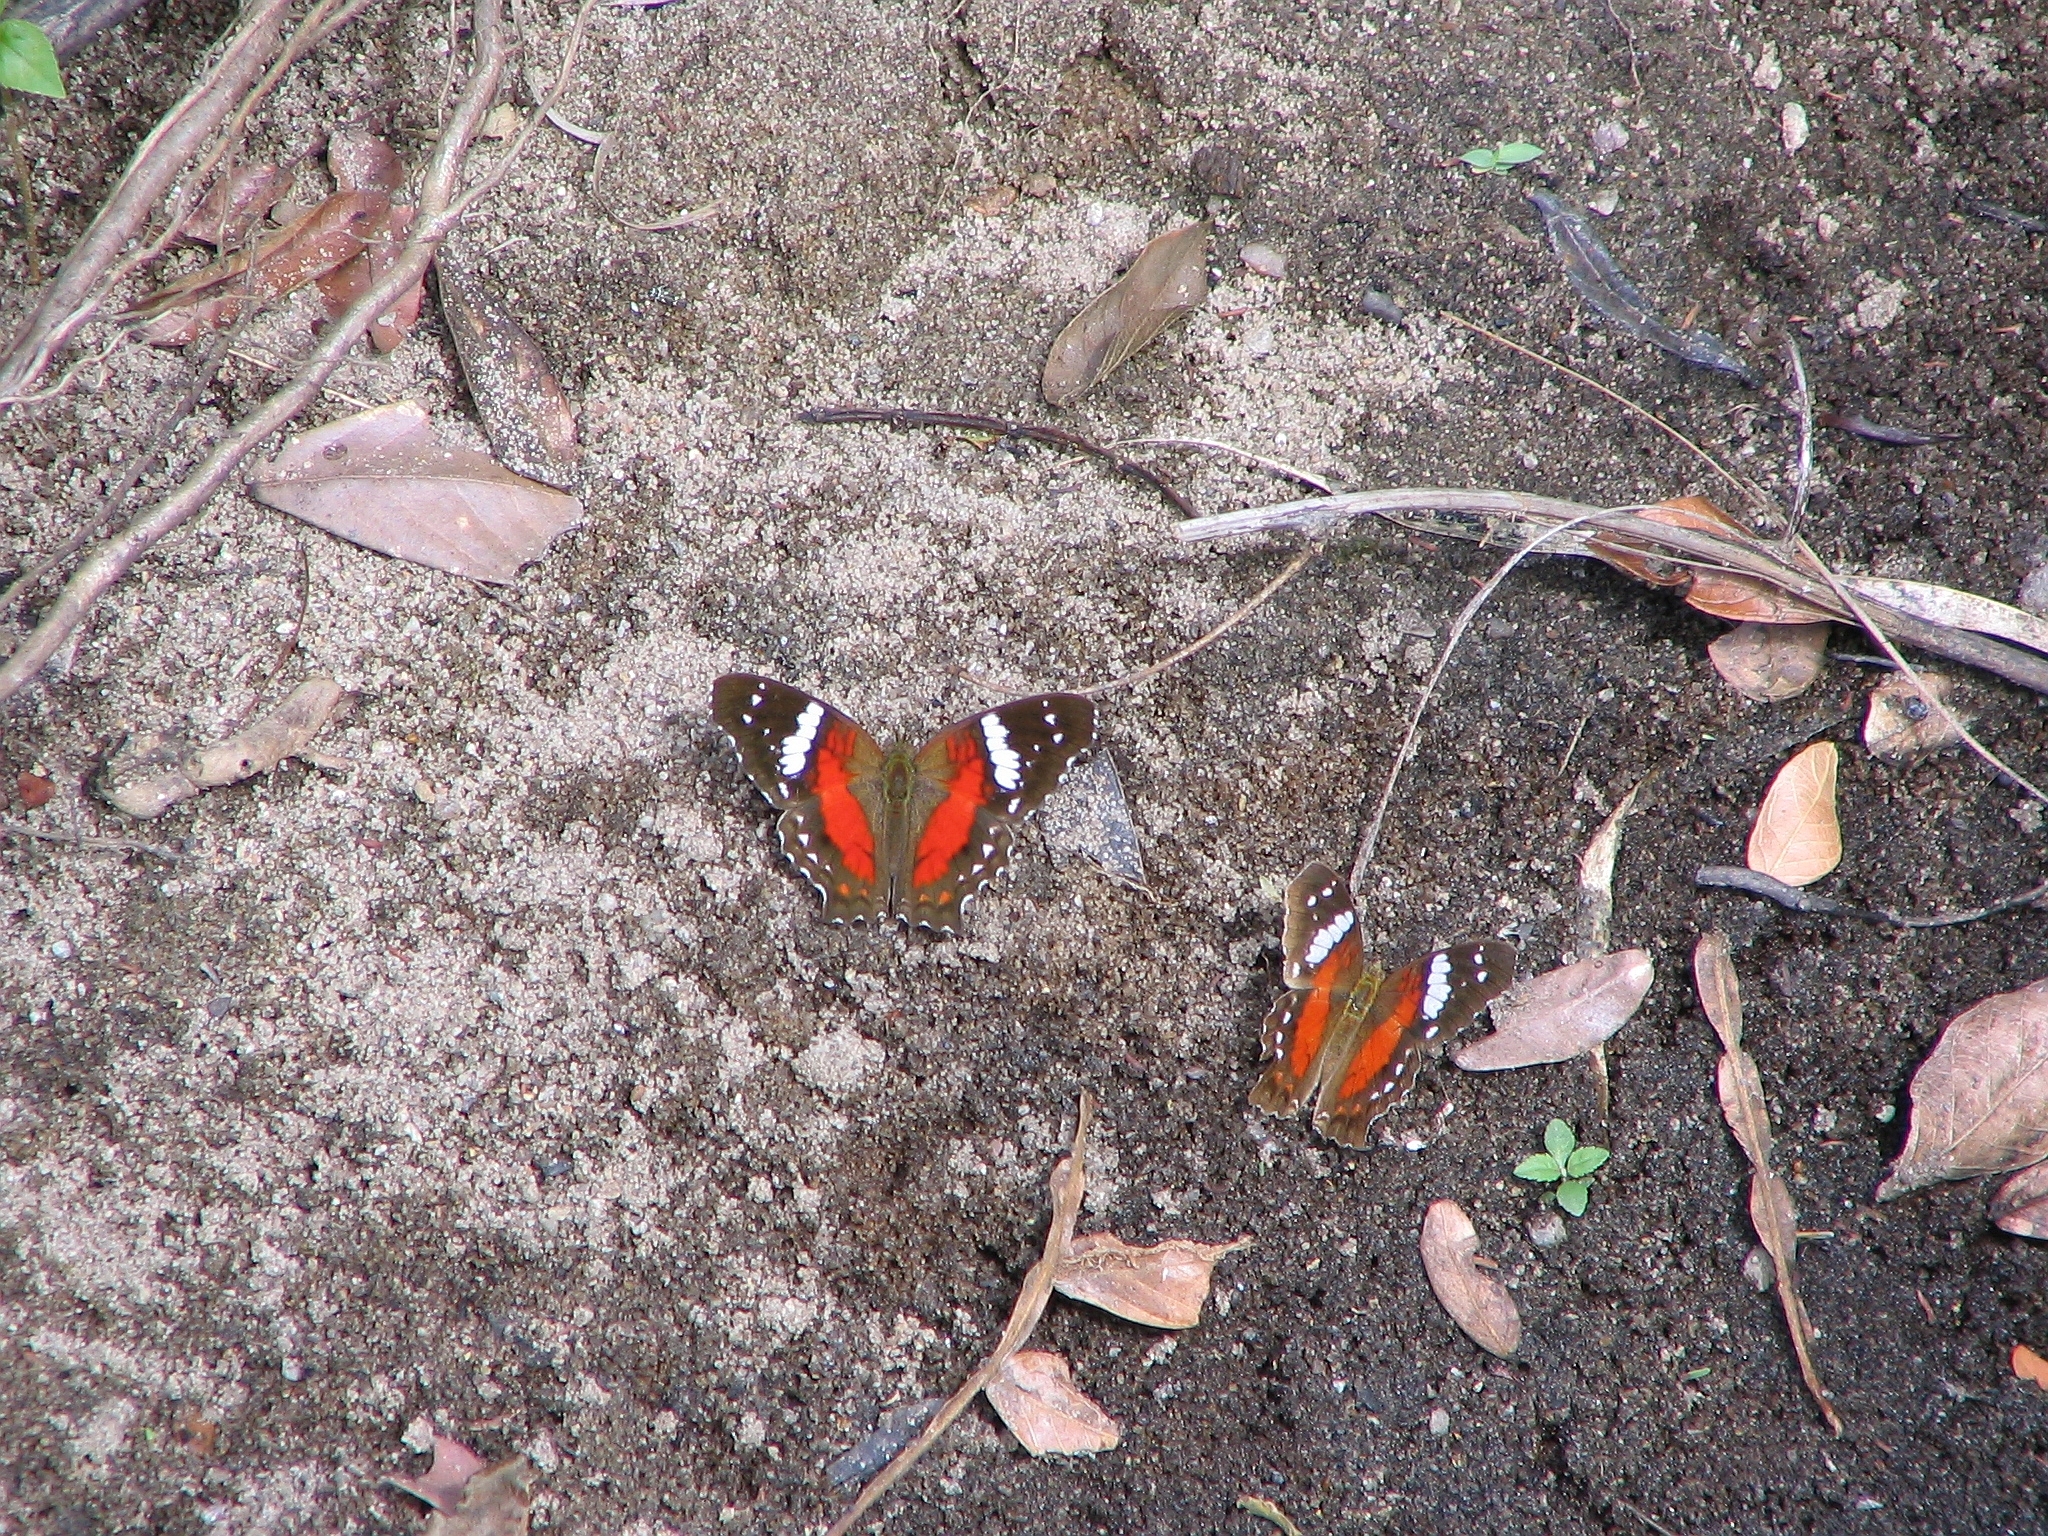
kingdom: Animalia
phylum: Arthropoda
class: Insecta
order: Lepidoptera
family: Nymphalidae
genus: Anartia
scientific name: Anartia amathea
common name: Red peacock
